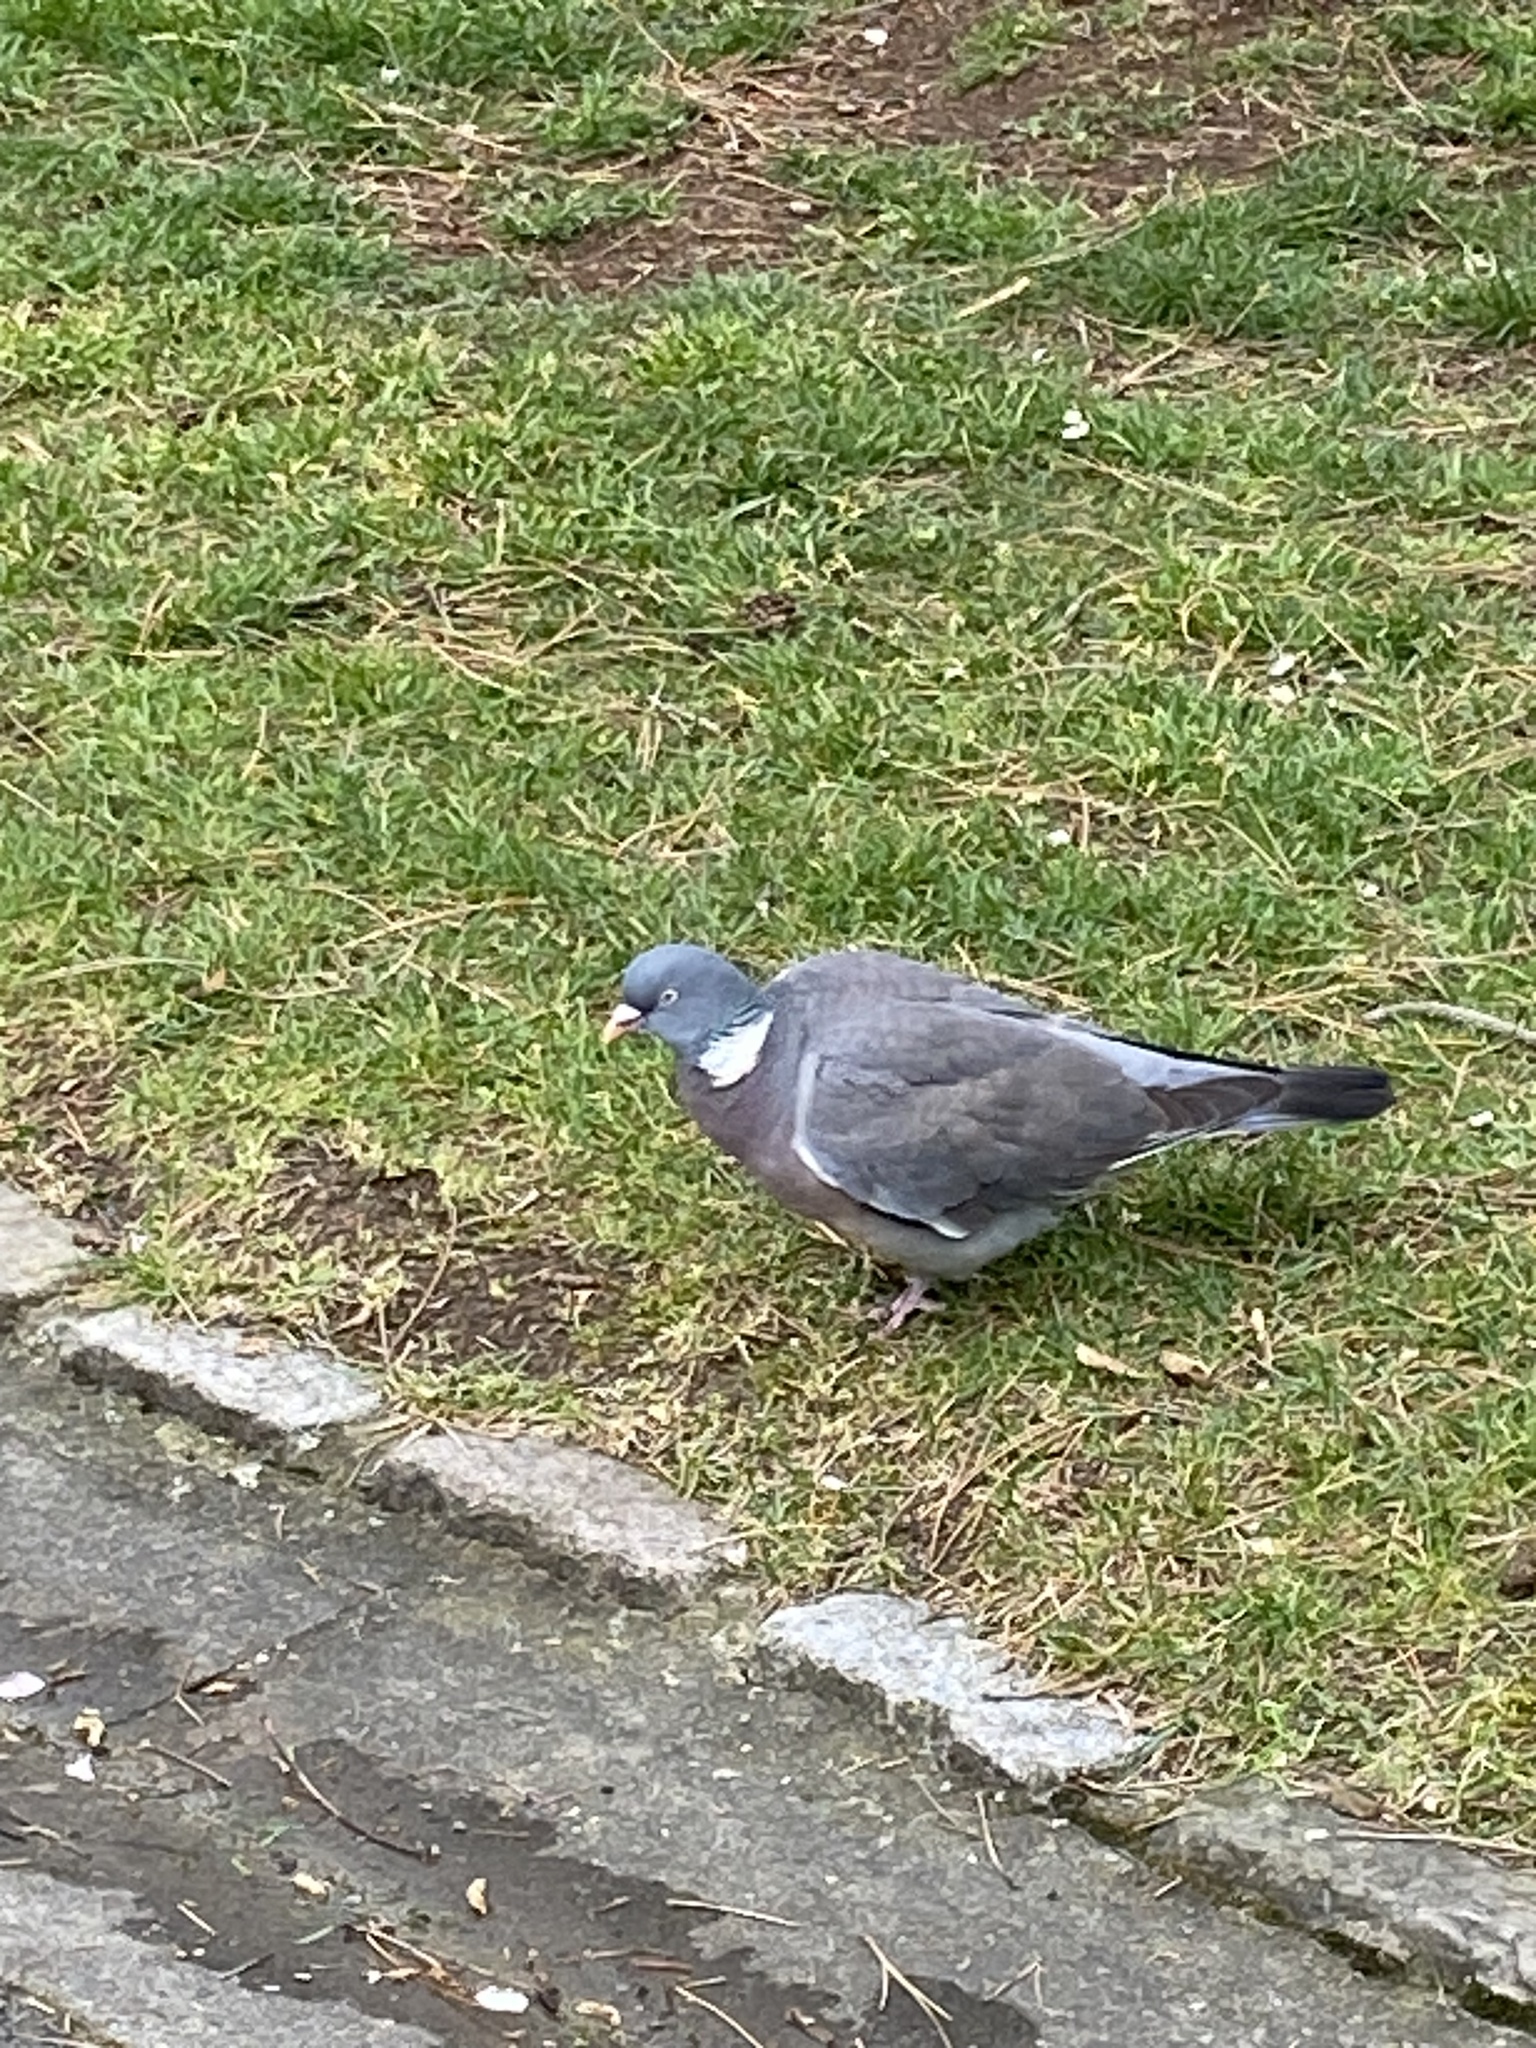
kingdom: Animalia
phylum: Chordata
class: Aves
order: Columbiformes
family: Columbidae
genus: Columba
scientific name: Columba palumbus
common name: Common wood pigeon
